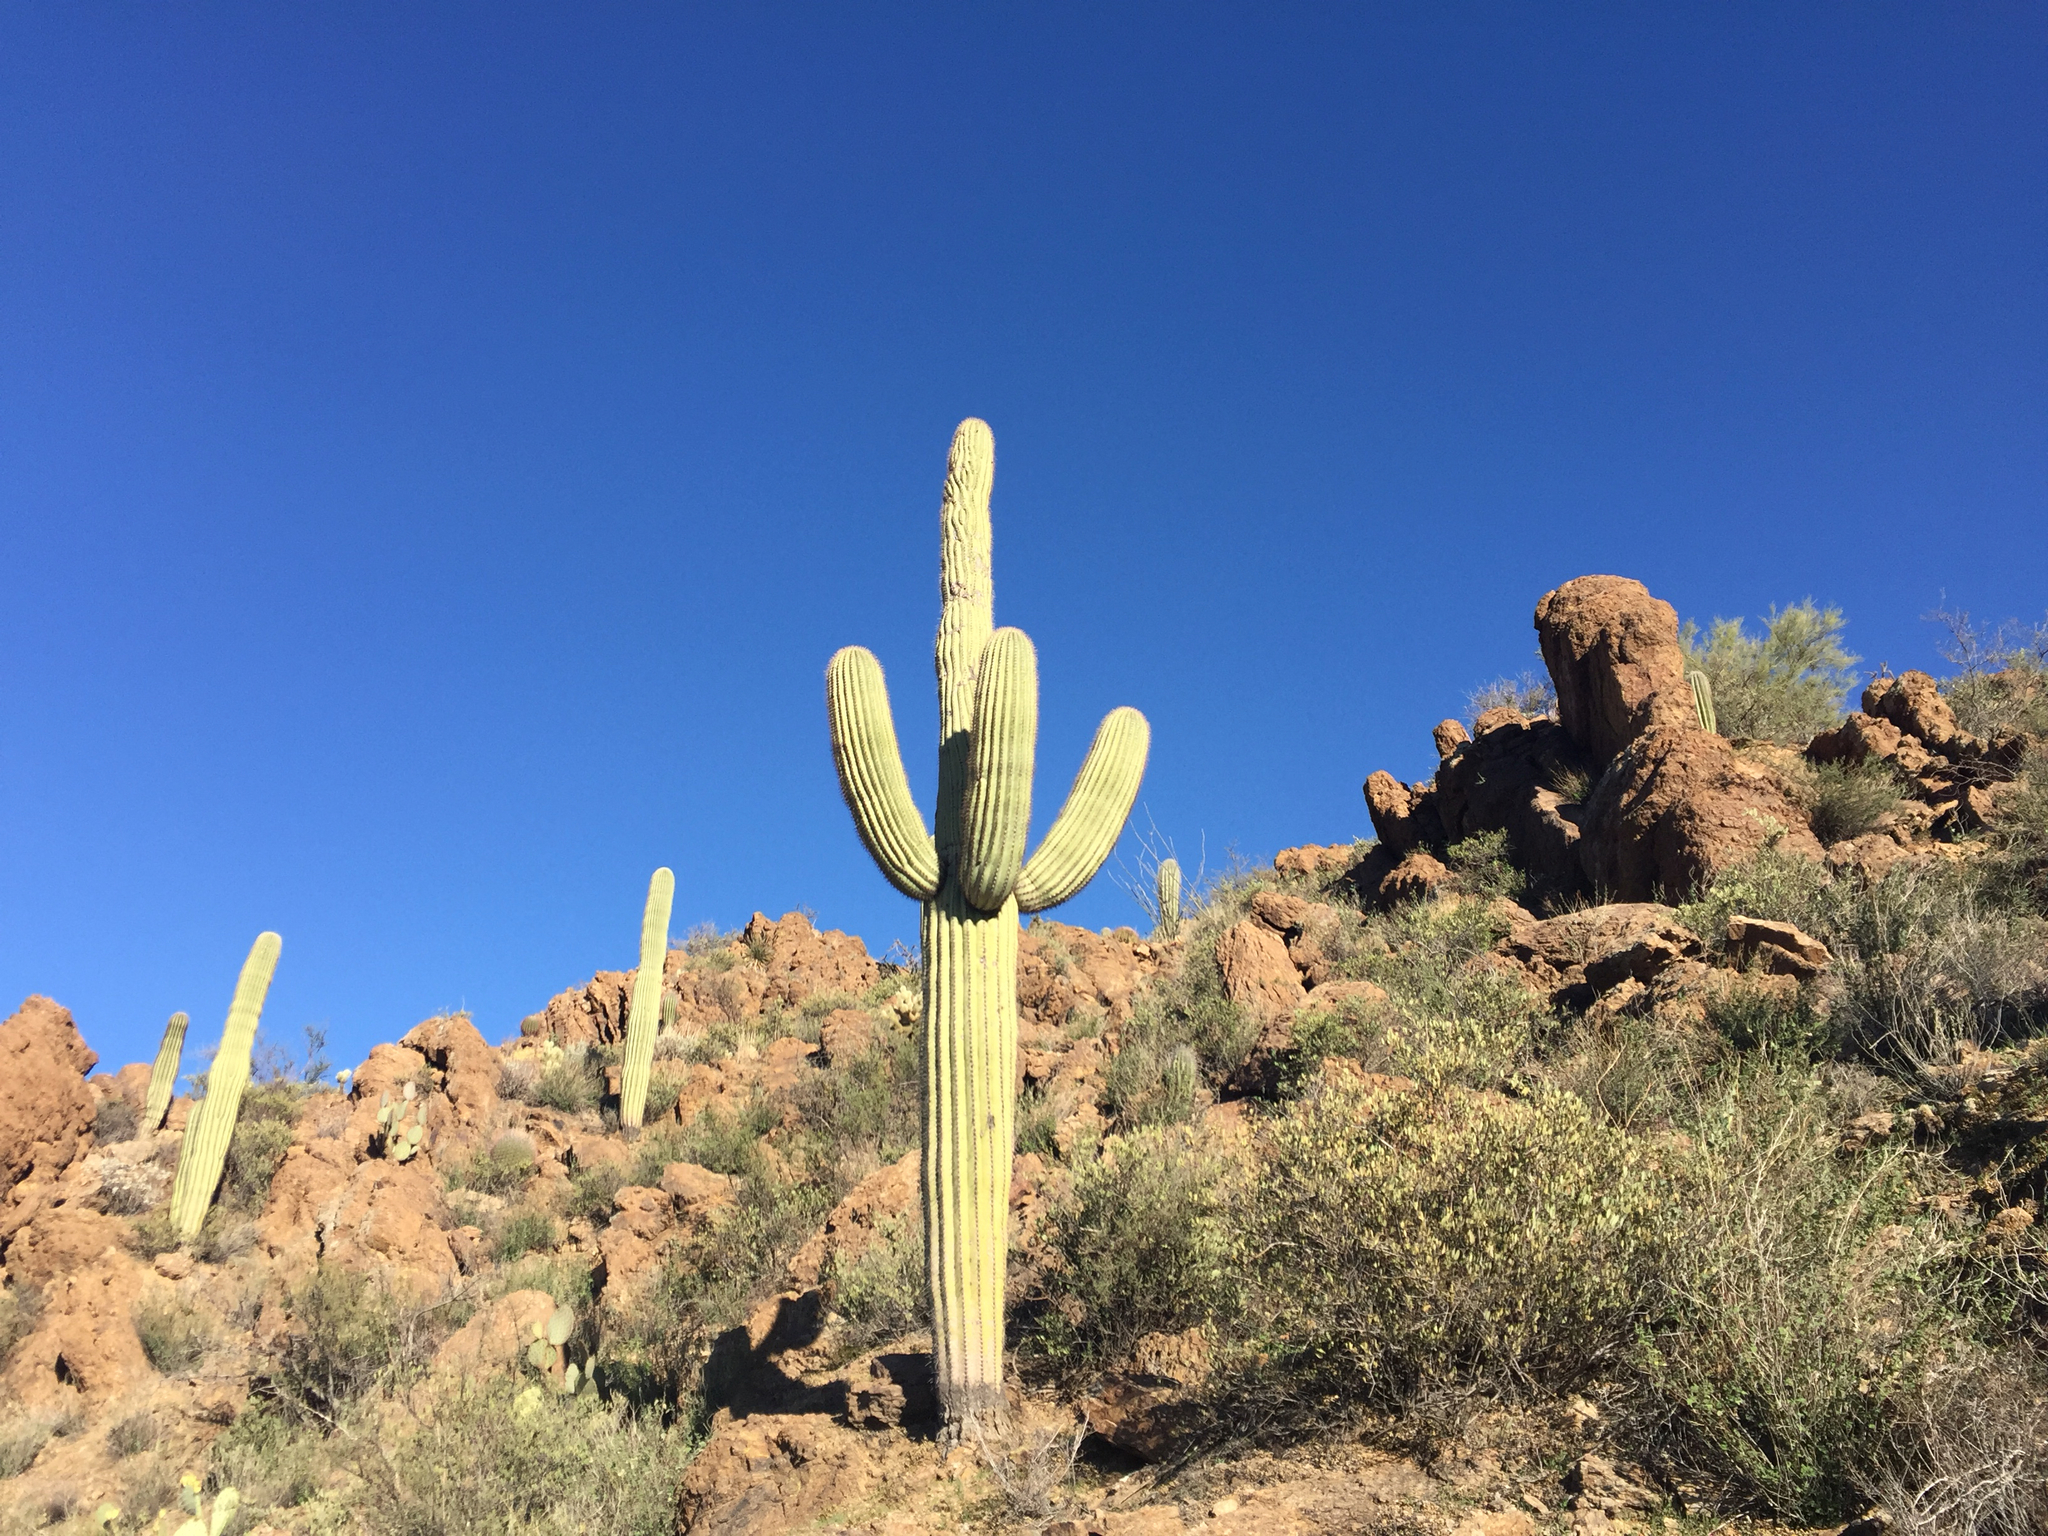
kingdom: Plantae
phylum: Tracheophyta
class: Magnoliopsida
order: Caryophyllales
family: Cactaceae
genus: Carnegiea
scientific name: Carnegiea gigantea
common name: Saguaro
